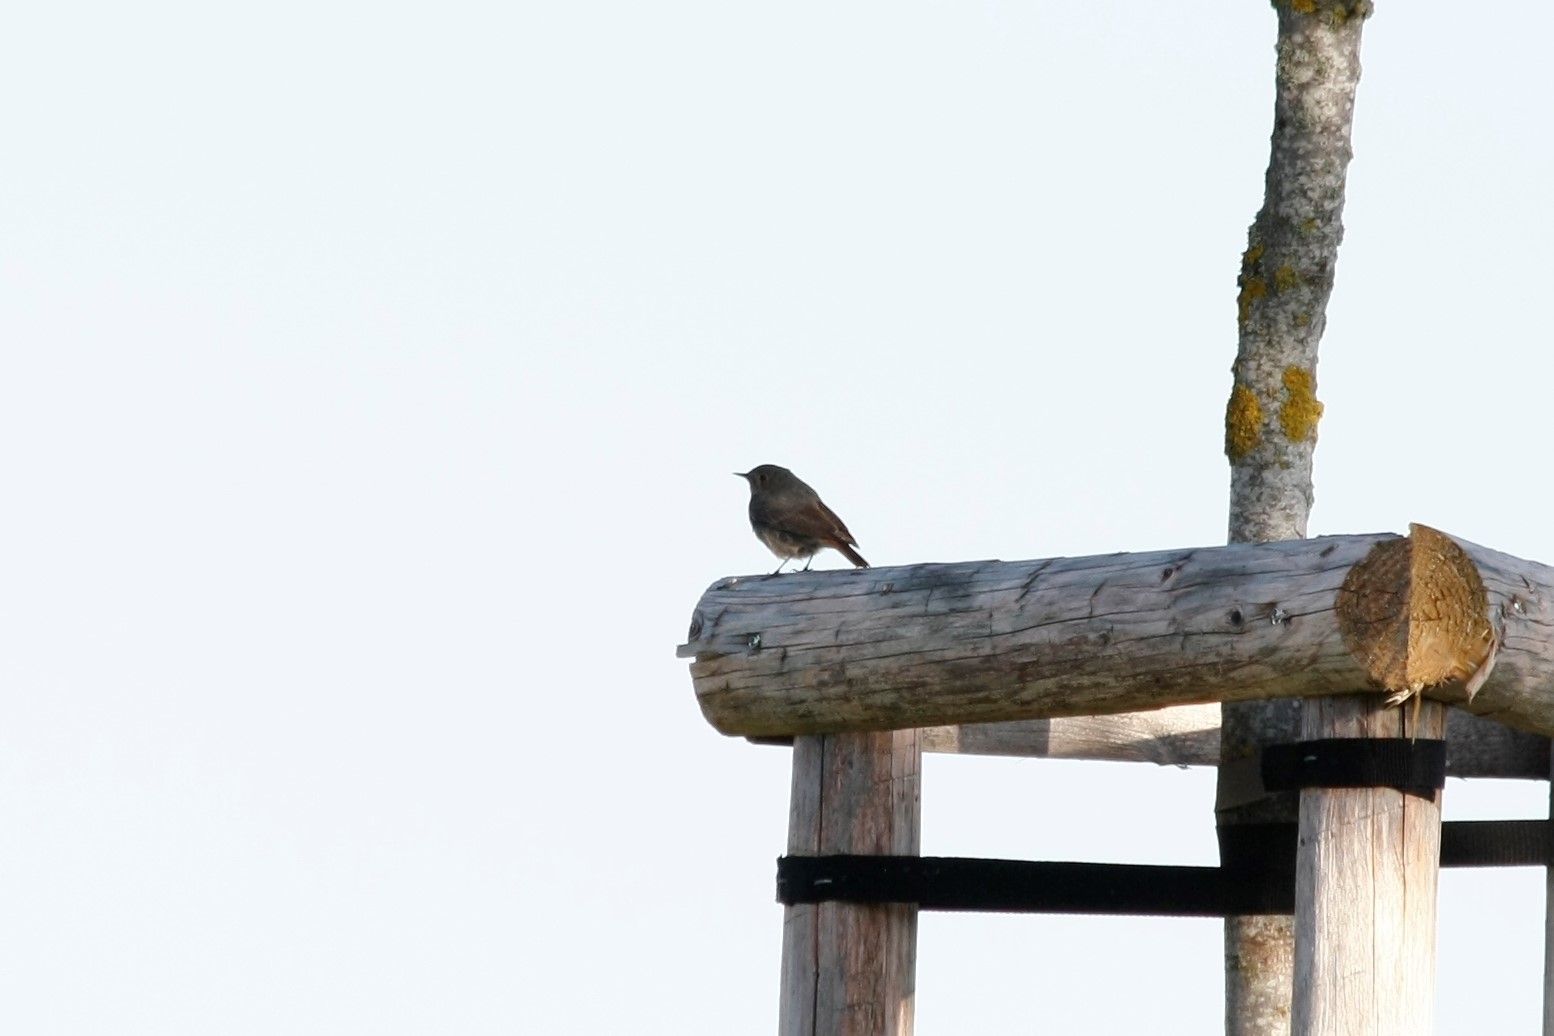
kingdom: Animalia
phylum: Chordata
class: Aves
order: Passeriformes
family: Muscicapidae
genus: Phoenicurus
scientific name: Phoenicurus ochruros
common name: Black redstart
